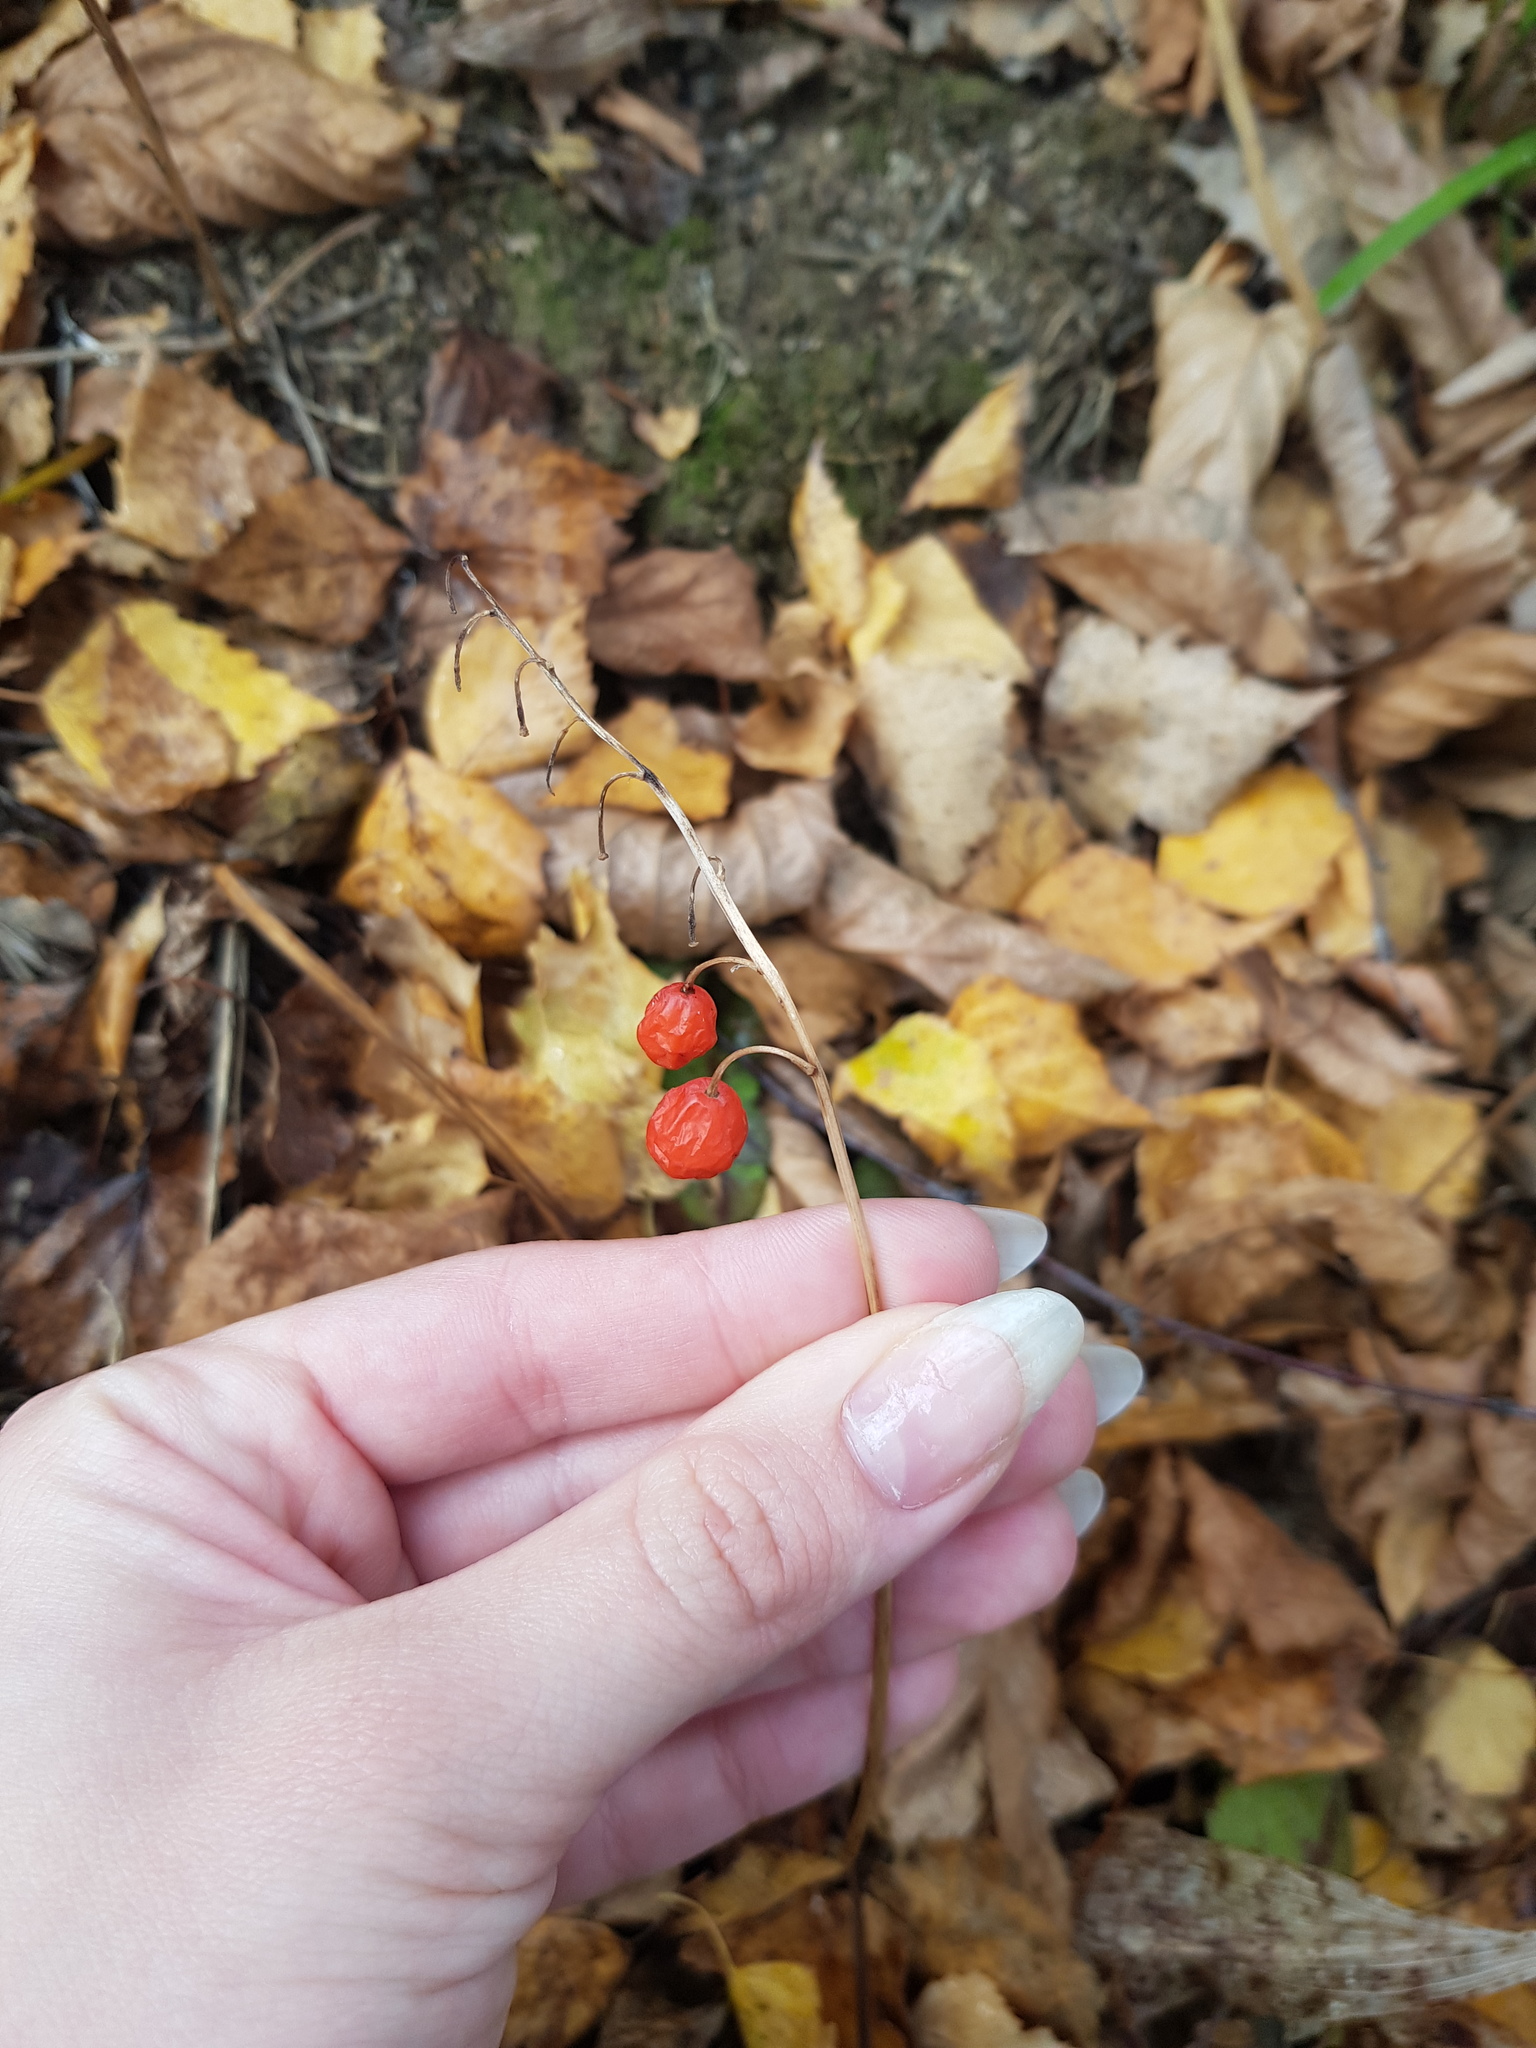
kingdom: Plantae
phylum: Tracheophyta
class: Liliopsida
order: Asparagales
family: Asparagaceae
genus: Convallaria
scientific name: Convallaria majalis
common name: Lily-of-the-valley
